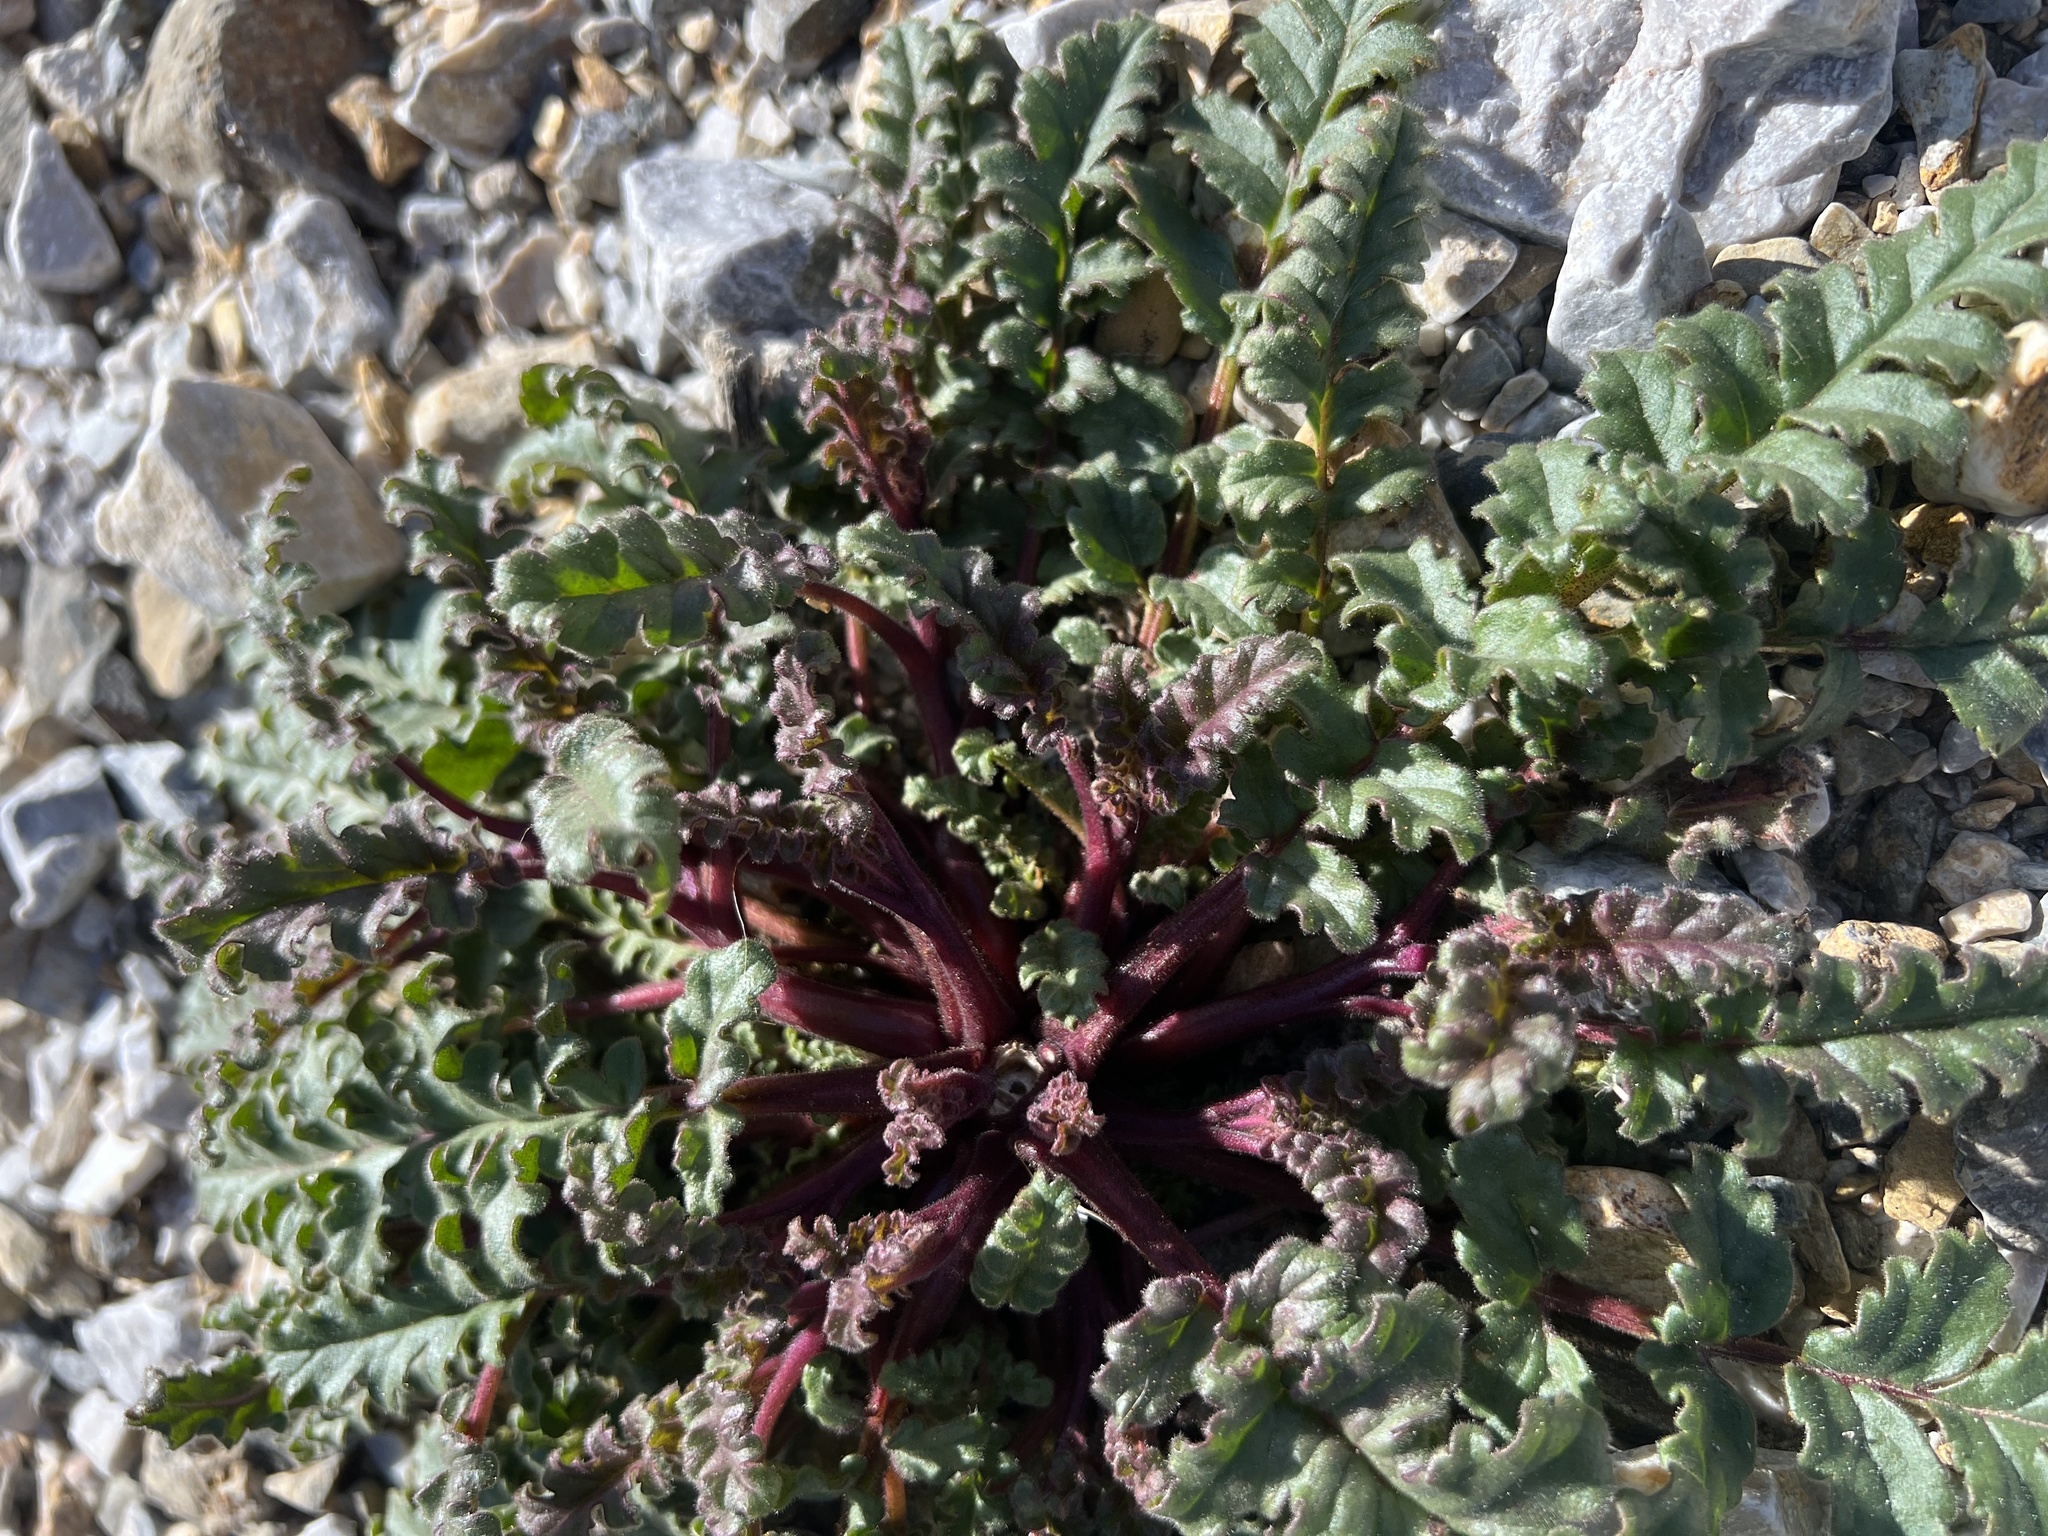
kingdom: Plantae
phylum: Tracheophyta
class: Magnoliopsida
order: Boraginales
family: Hydrophyllaceae
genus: Phacelia
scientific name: Phacelia crenulata
